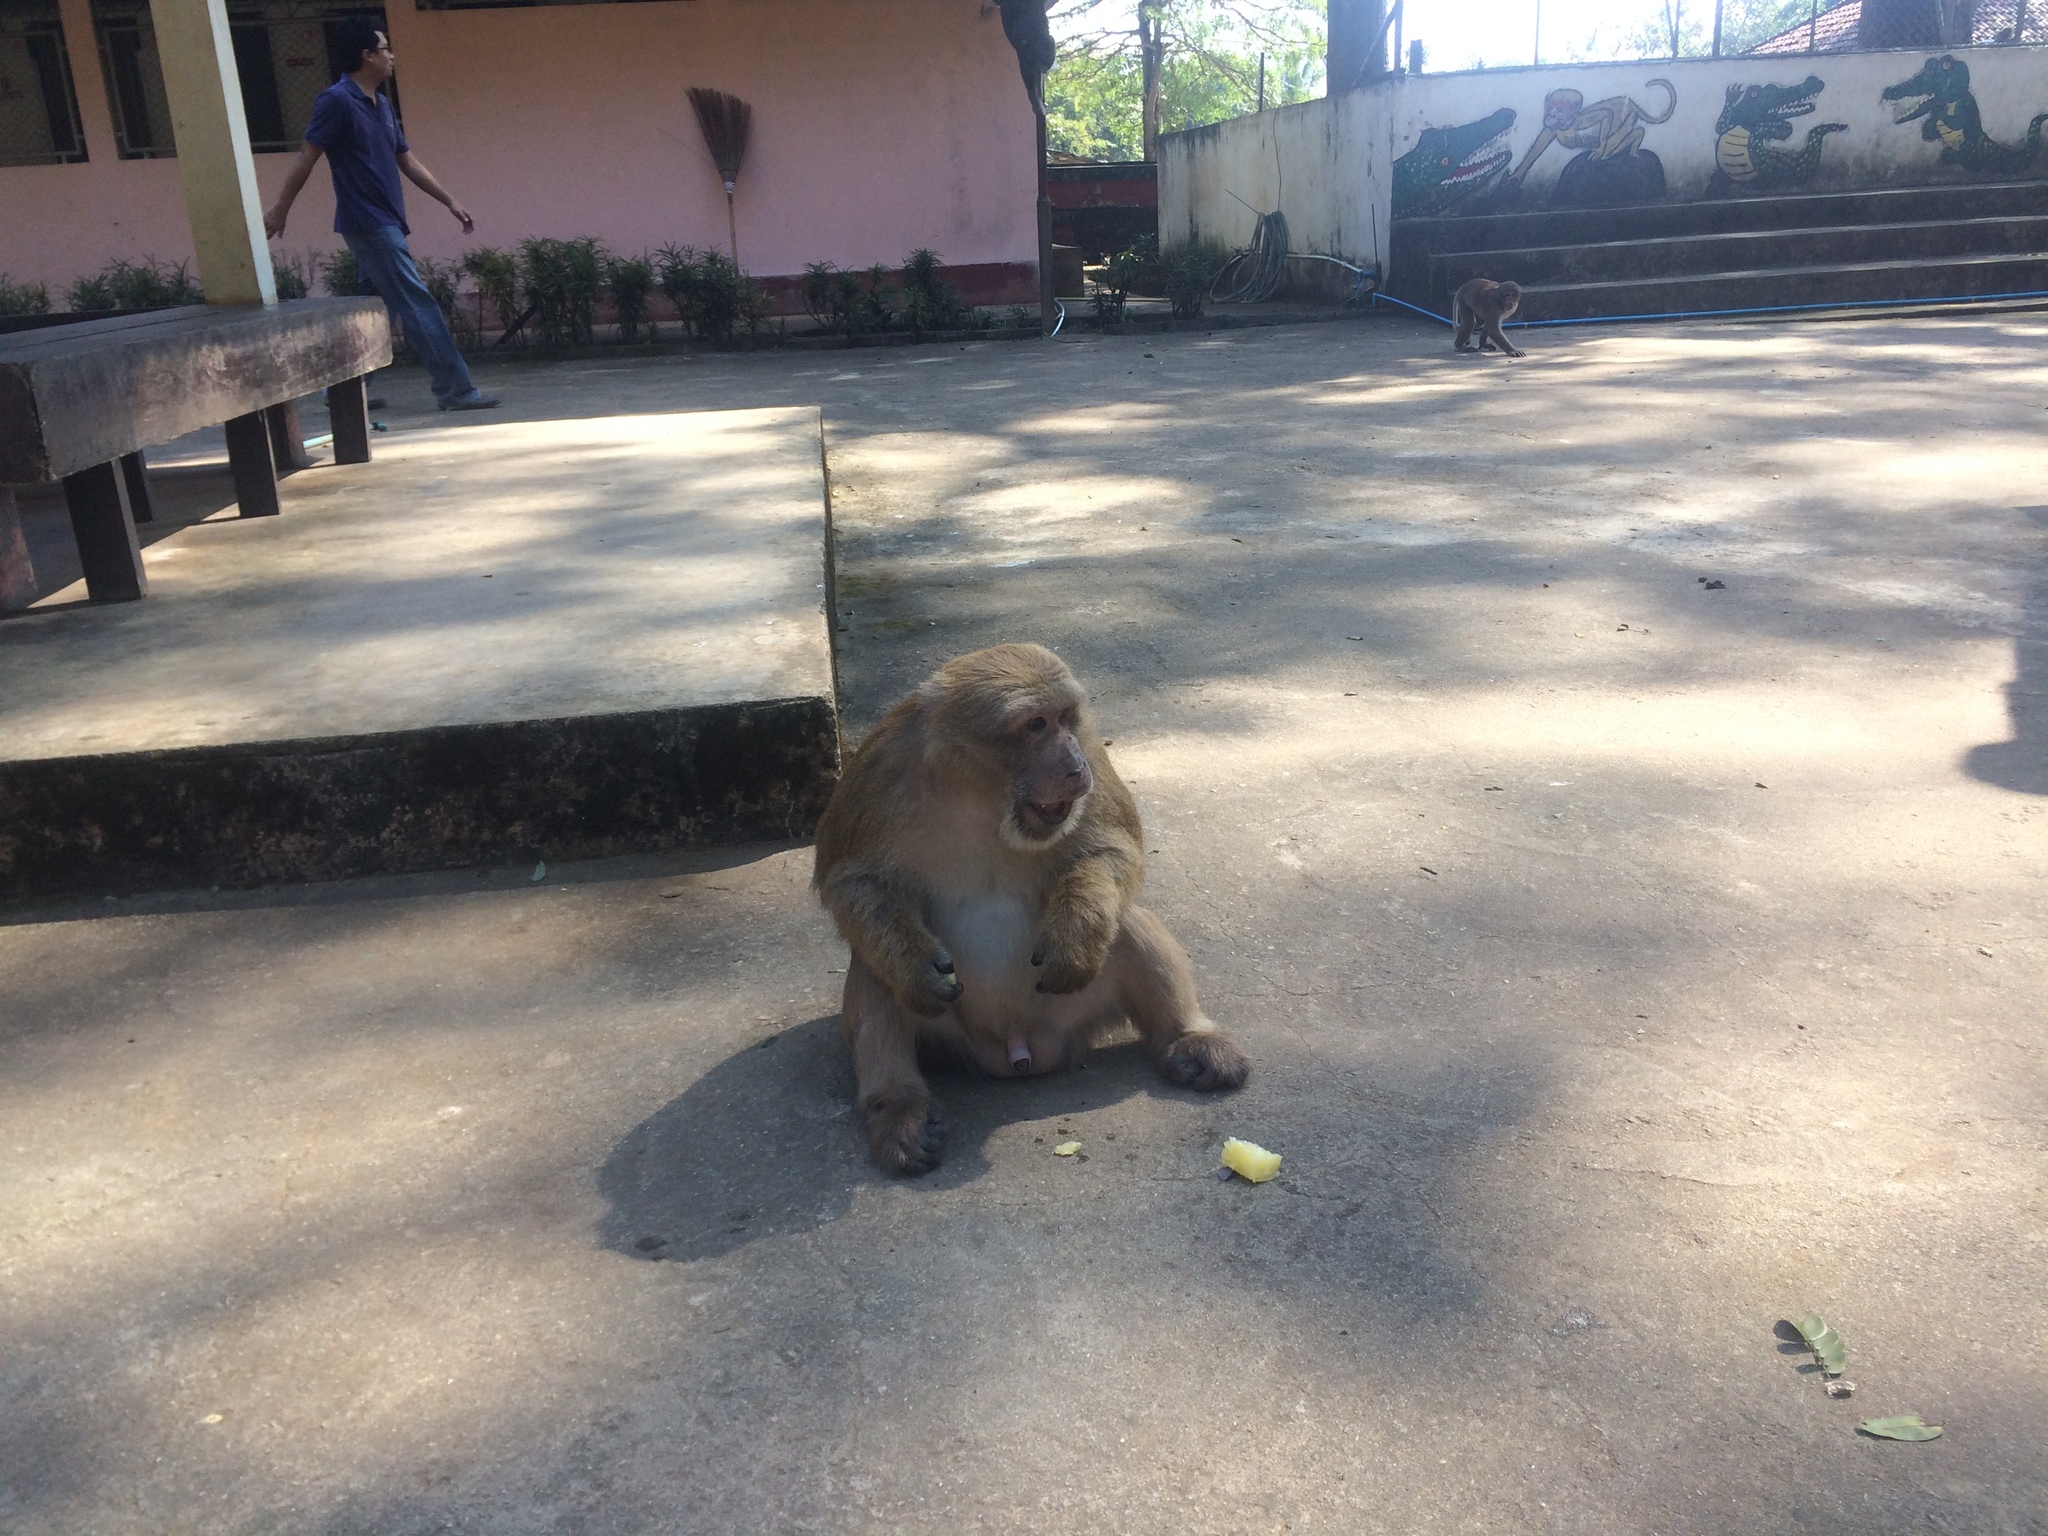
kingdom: Animalia
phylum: Chordata
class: Mammalia
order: Primates
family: Cercopithecidae
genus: Macaca
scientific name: Macaca assamensis
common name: Assam macaque
